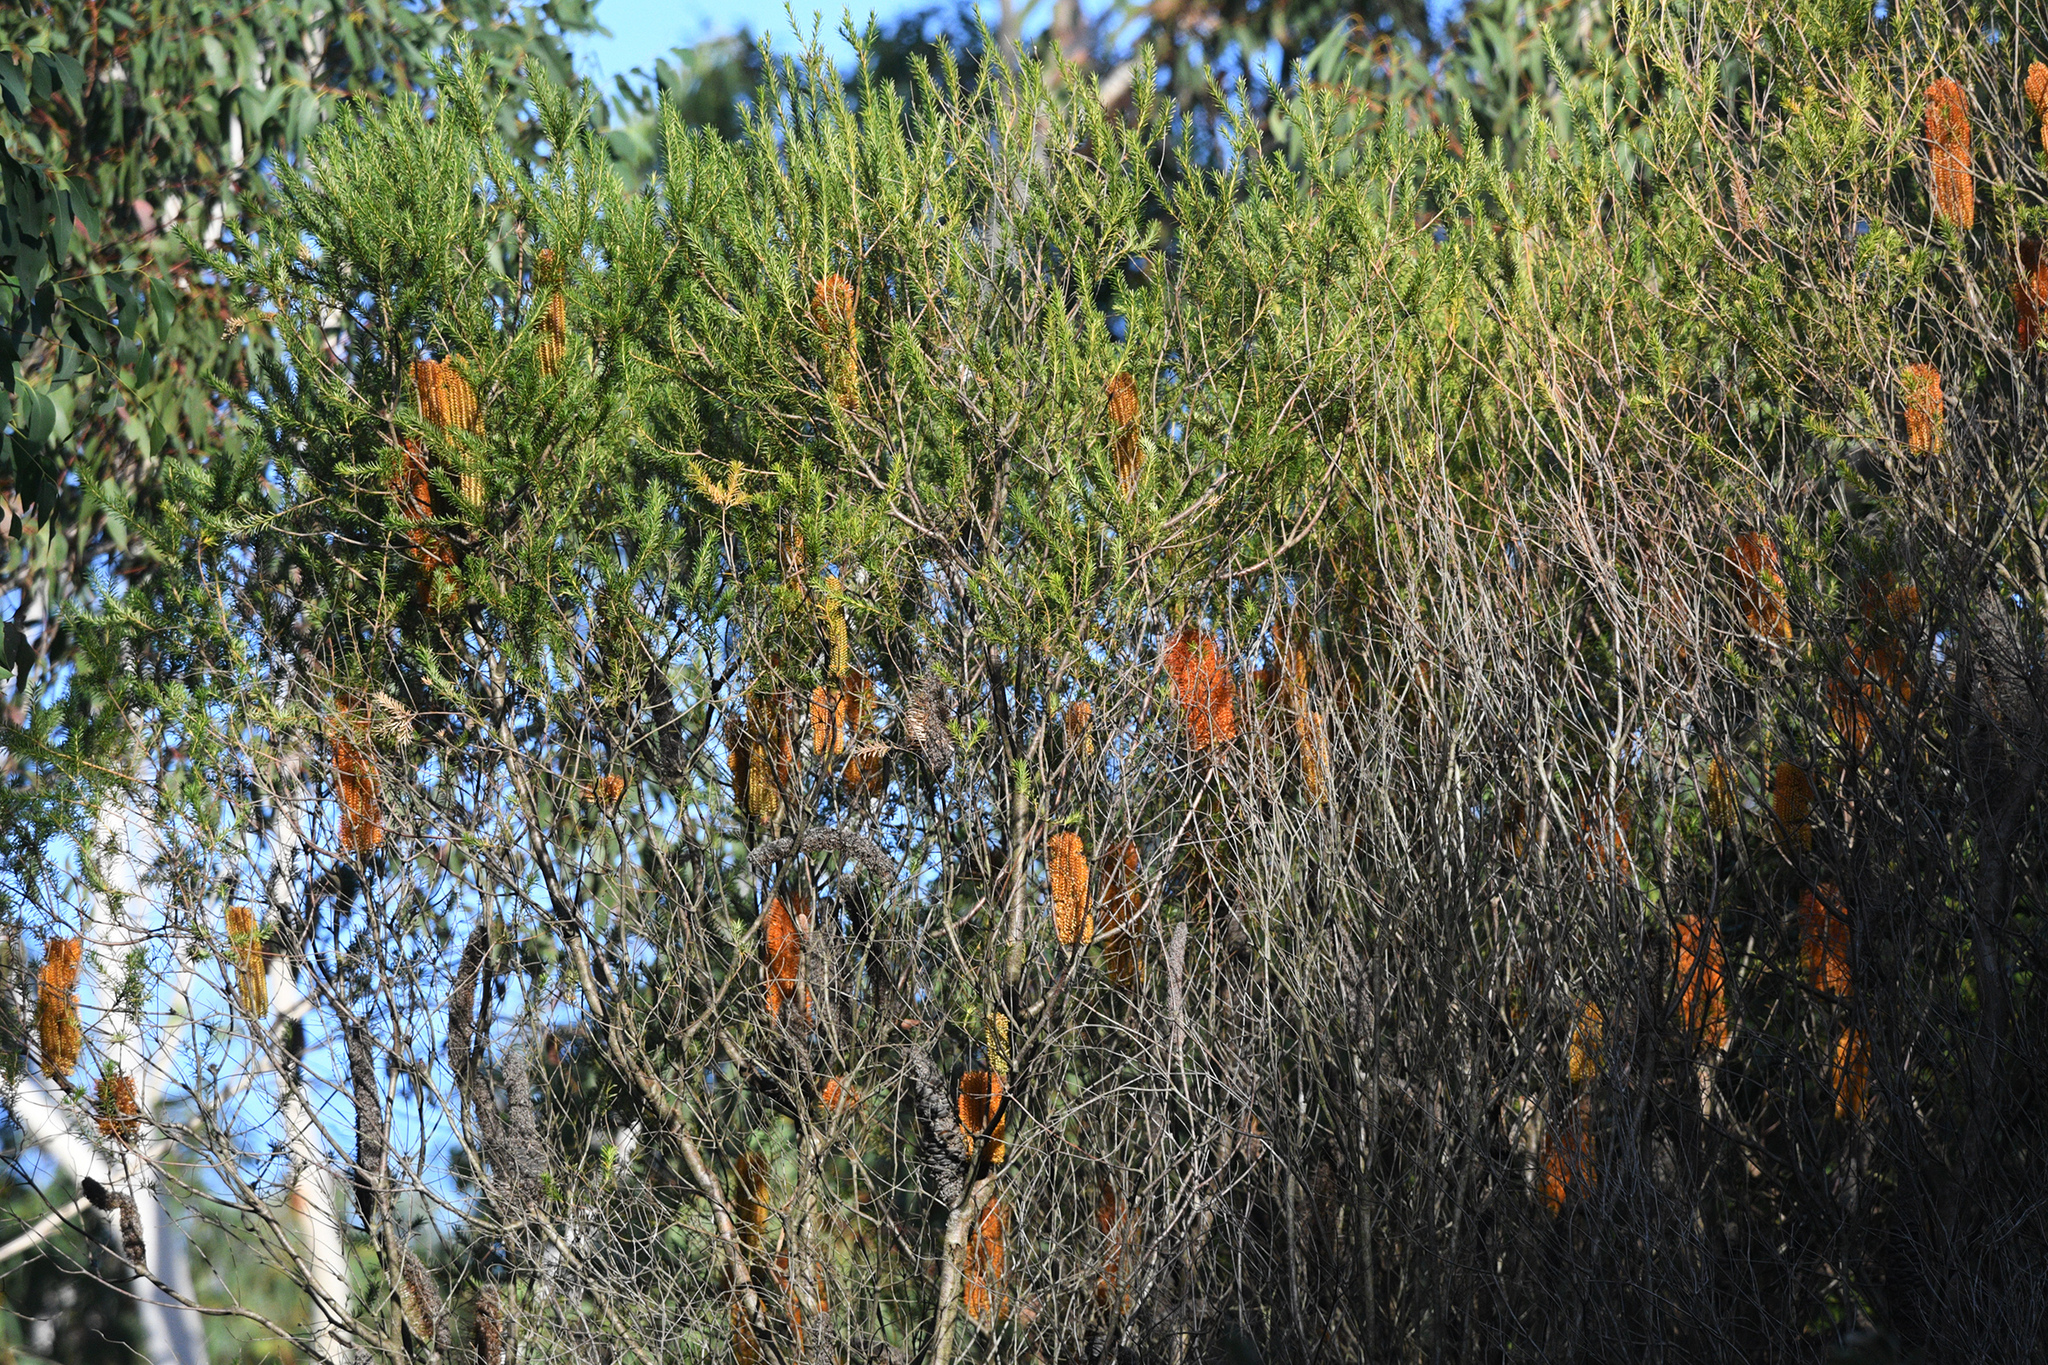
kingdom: Plantae
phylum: Tracheophyta
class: Magnoliopsida
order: Proteales
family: Proteaceae
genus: Banksia
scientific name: Banksia ericifolia
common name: Heath-leaf banksia
